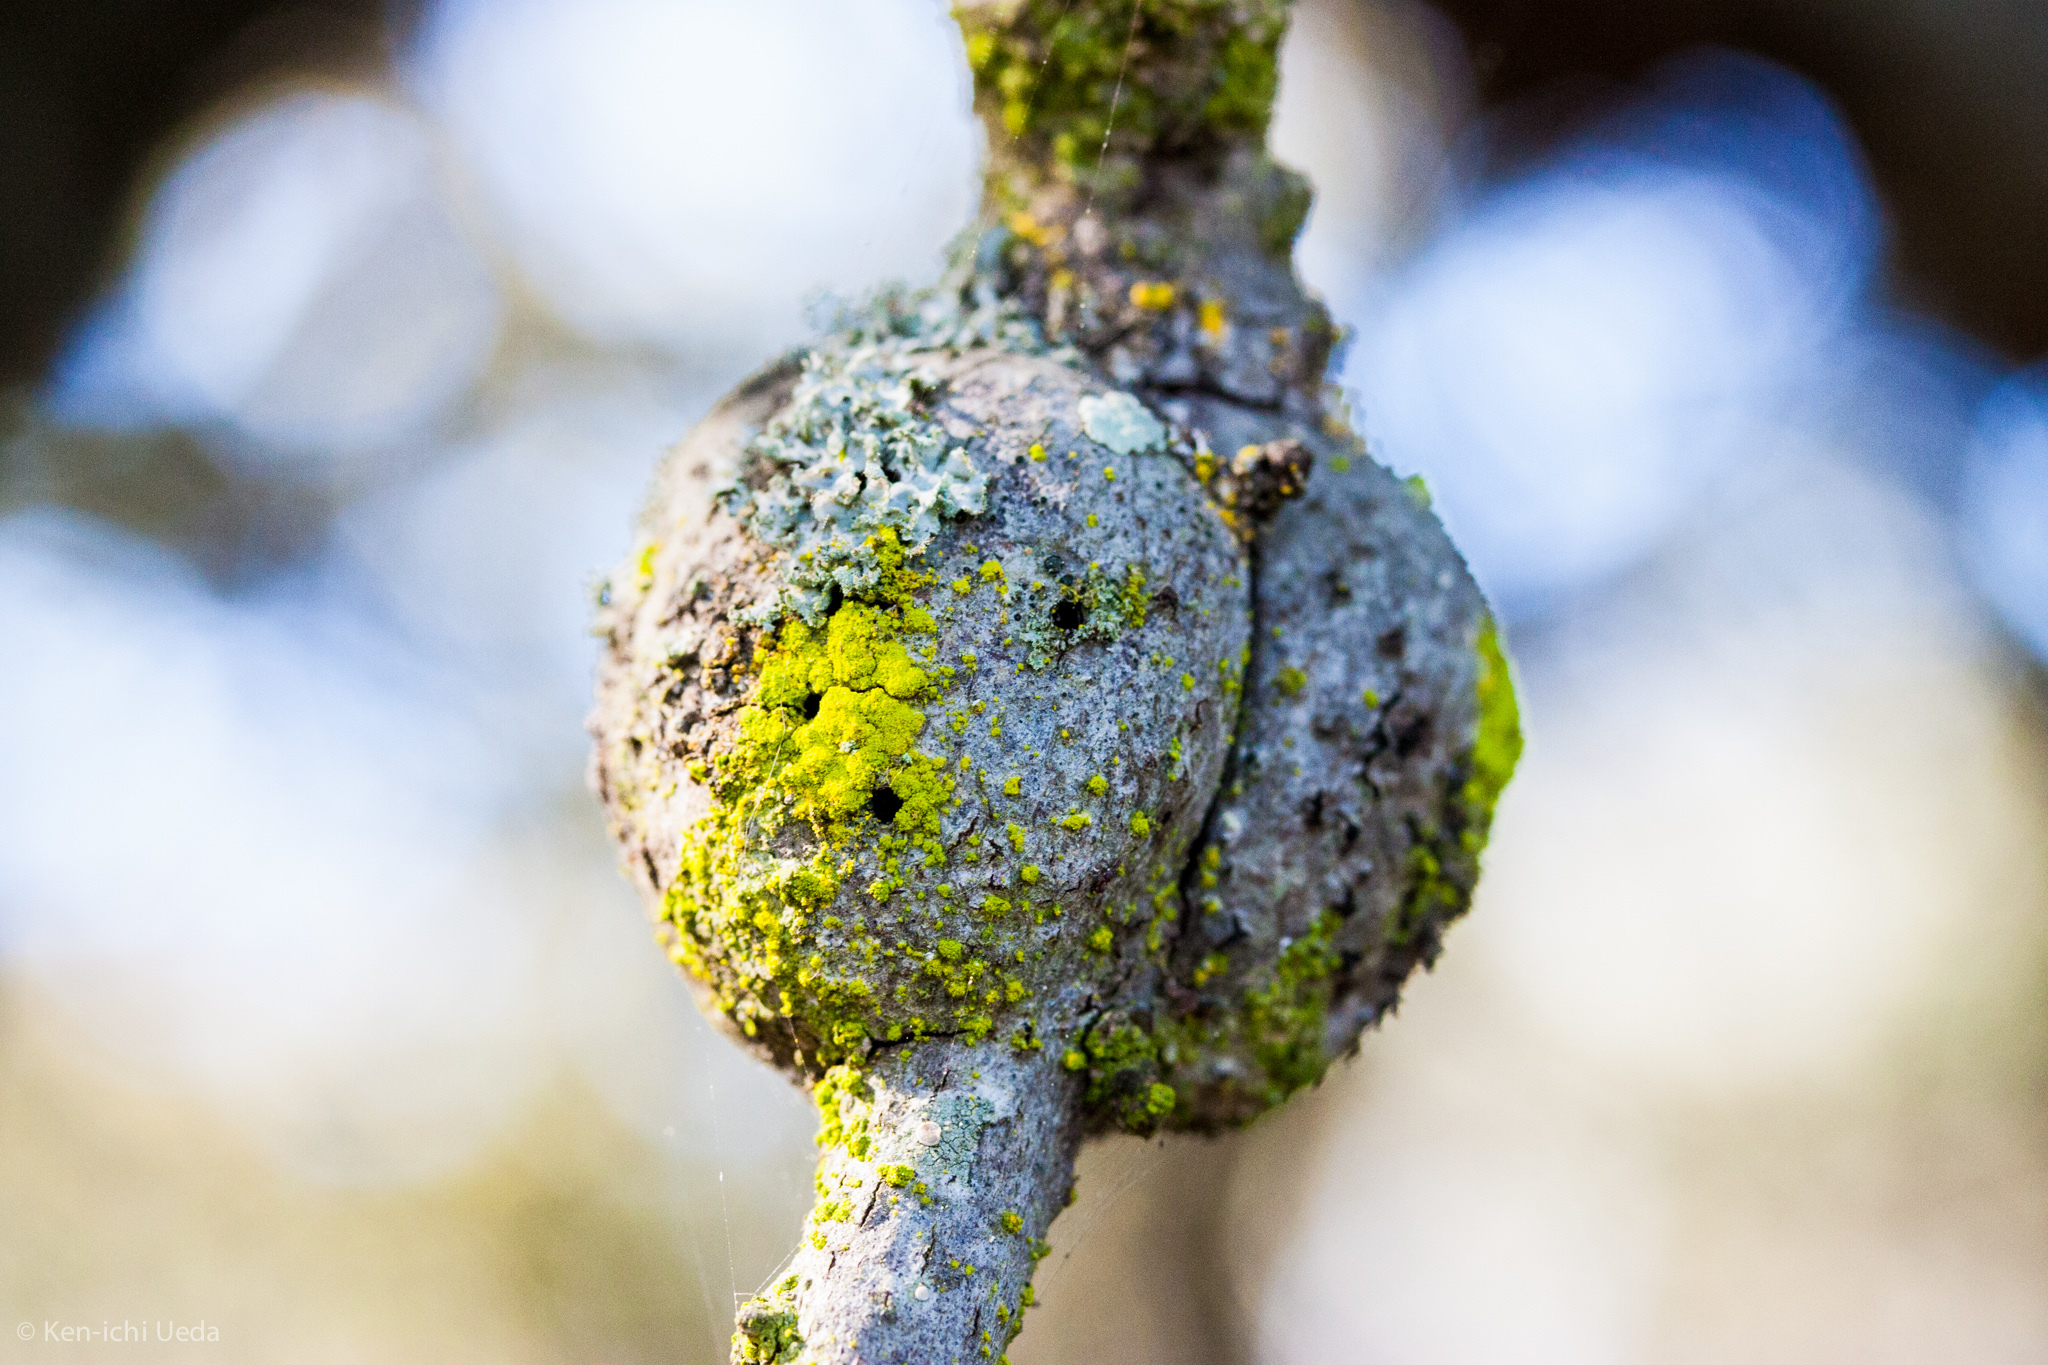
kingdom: Animalia
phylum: Arthropoda
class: Insecta
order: Hymenoptera
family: Cynipidae
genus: Callirhytis
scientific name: Callirhytis
